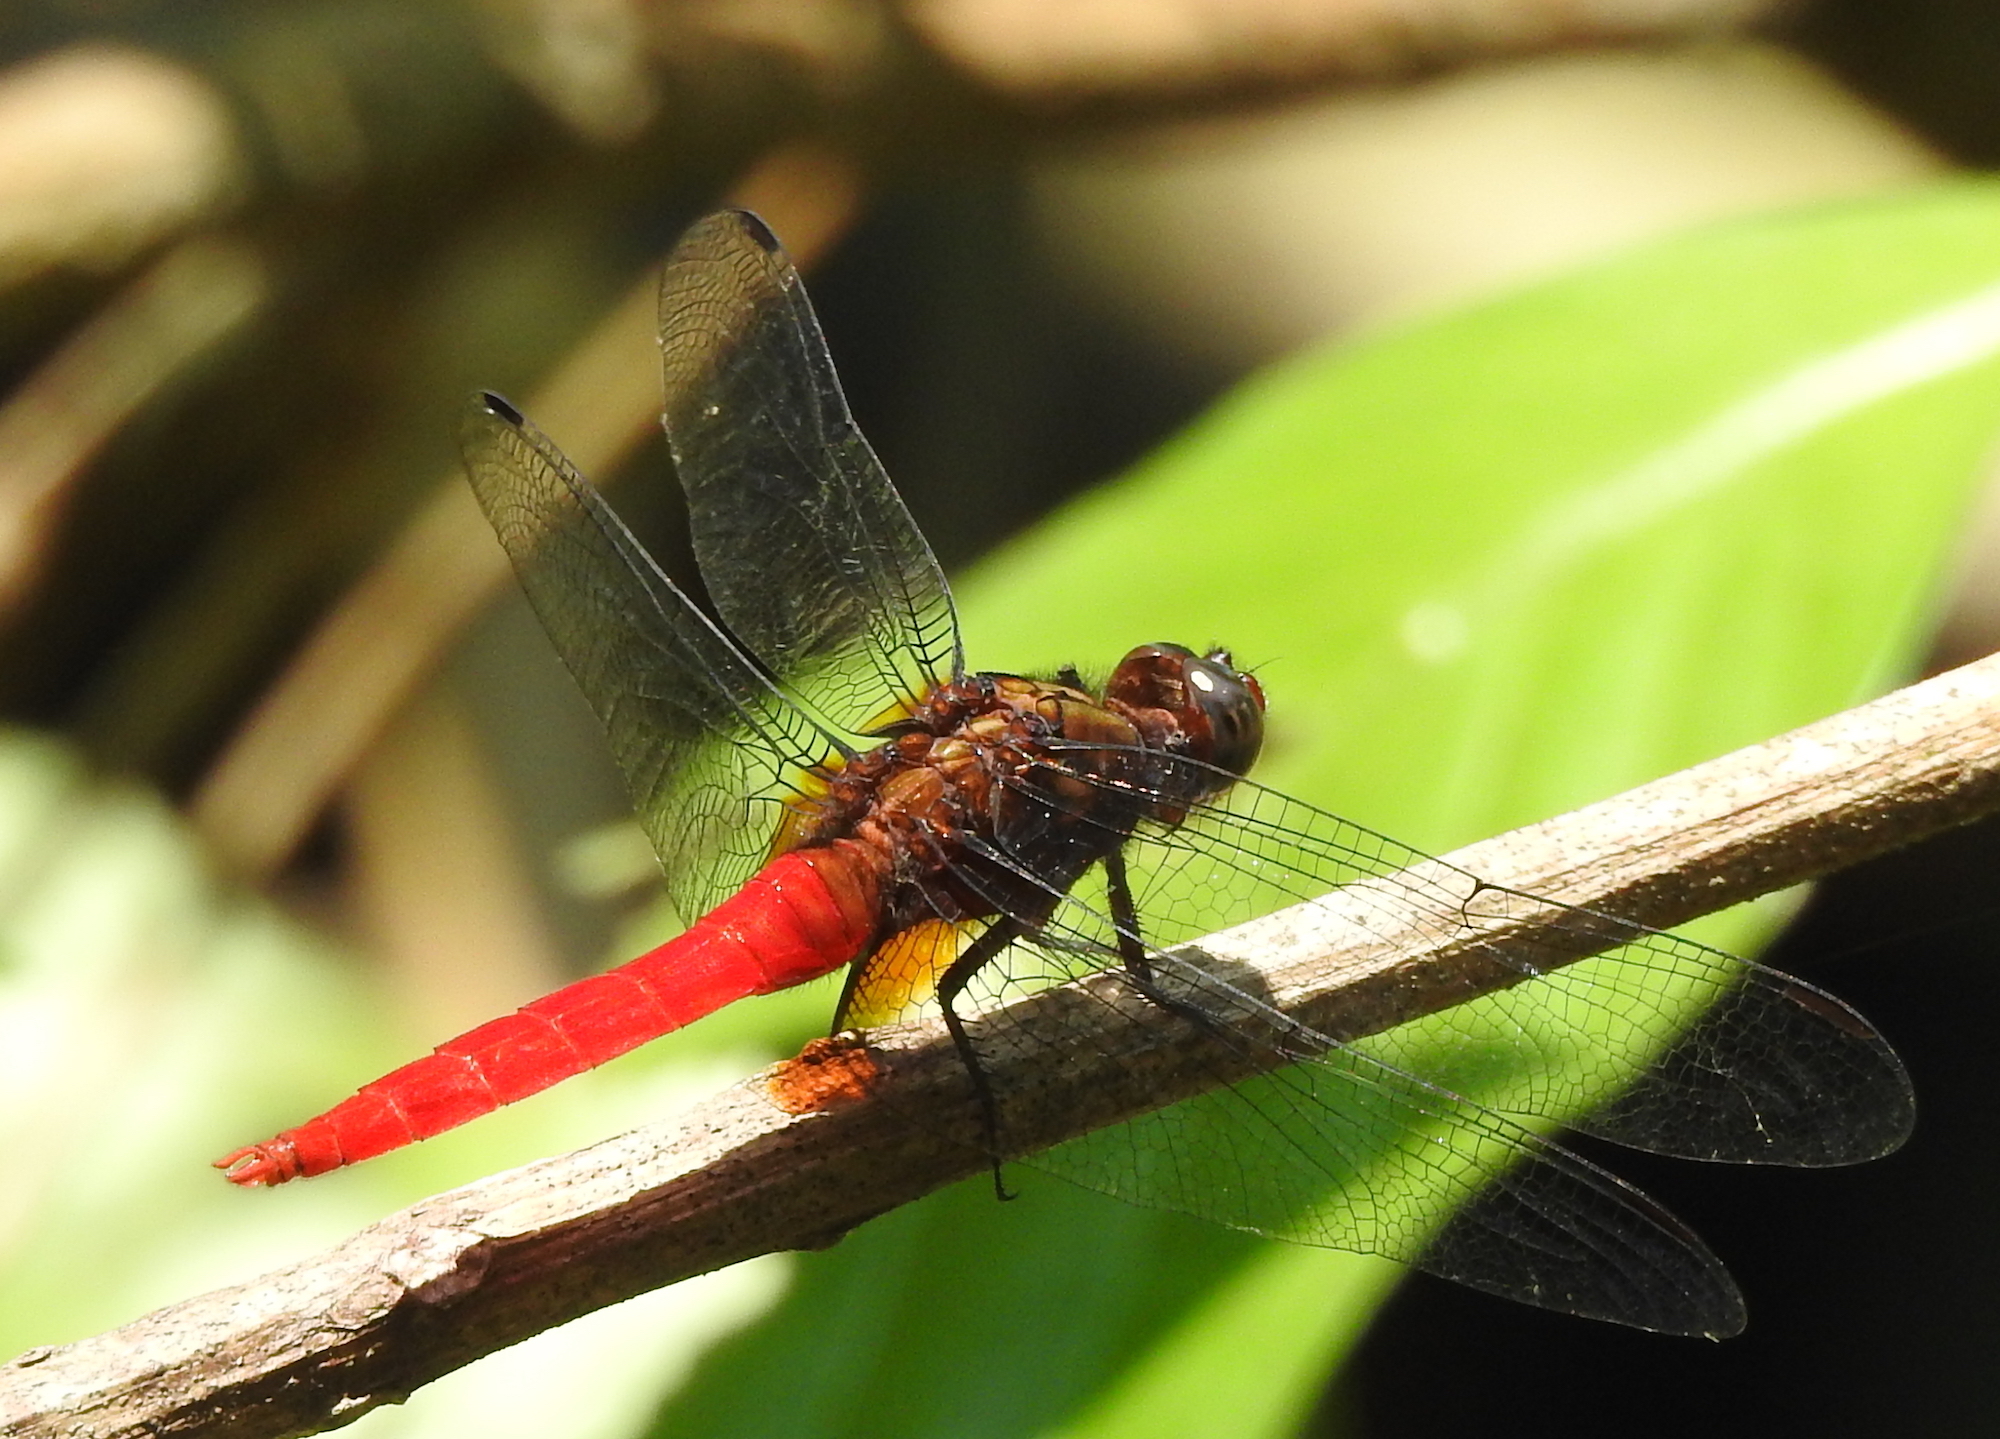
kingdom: Animalia
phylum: Arthropoda
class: Insecta
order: Odonata
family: Libellulidae
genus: Orthetrum
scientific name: Orthetrum chrysis
